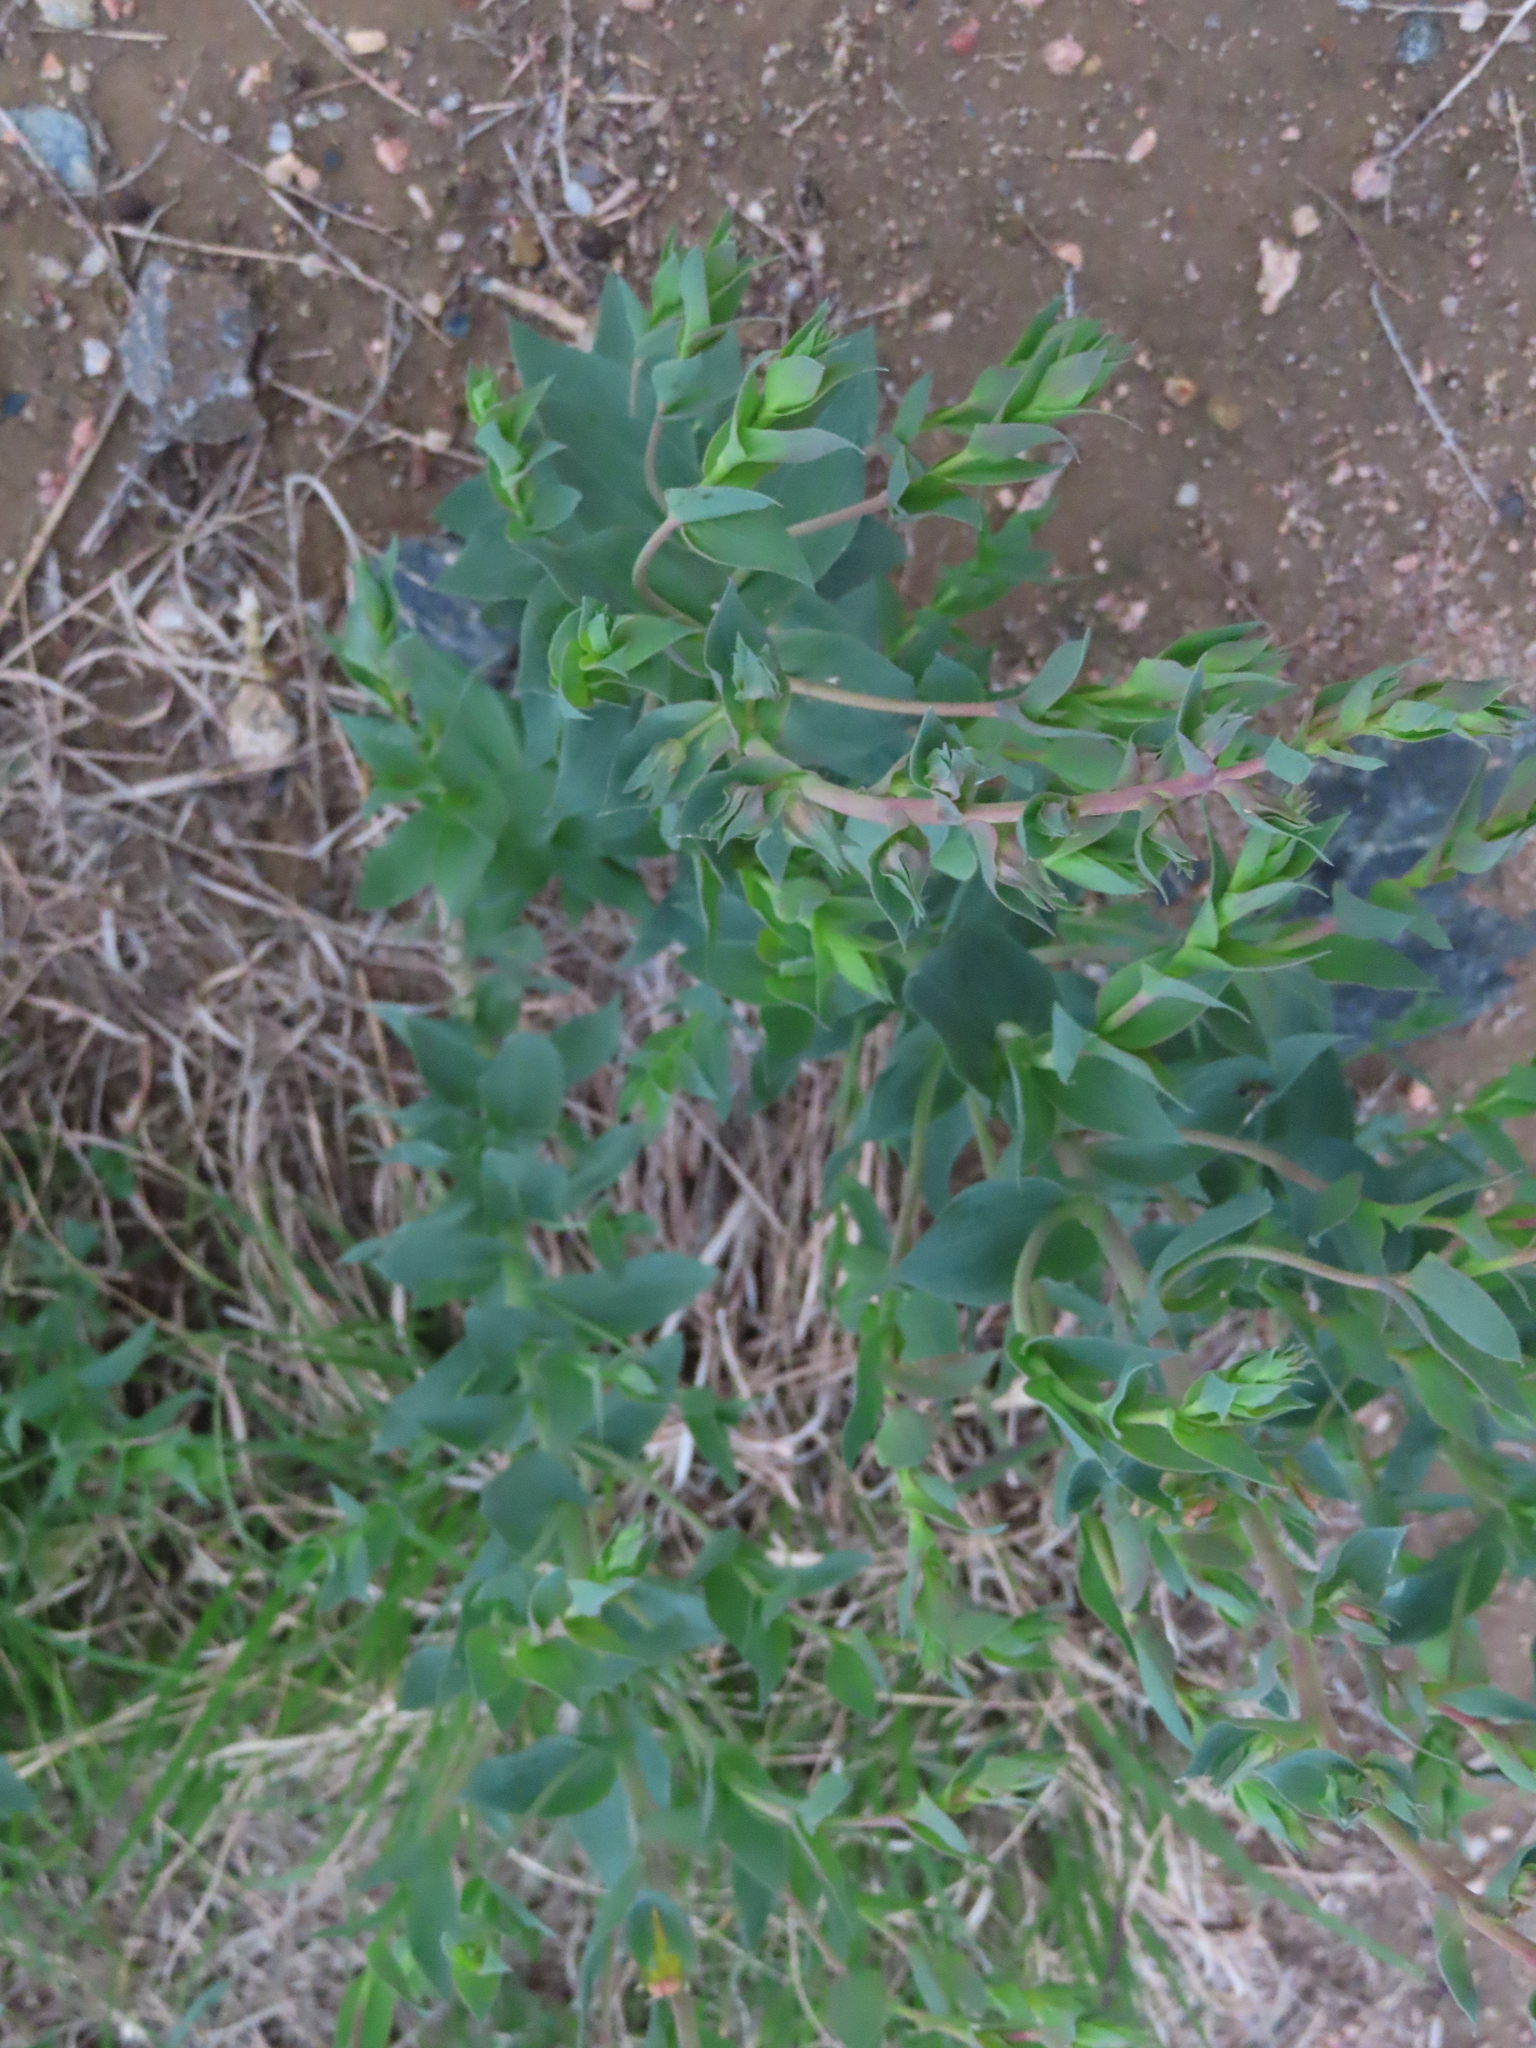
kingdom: Plantae
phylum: Tracheophyta
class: Magnoliopsida
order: Lamiales
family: Plantaginaceae
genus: Linaria
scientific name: Linaria dalmatica
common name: Dalmatian toadflax
